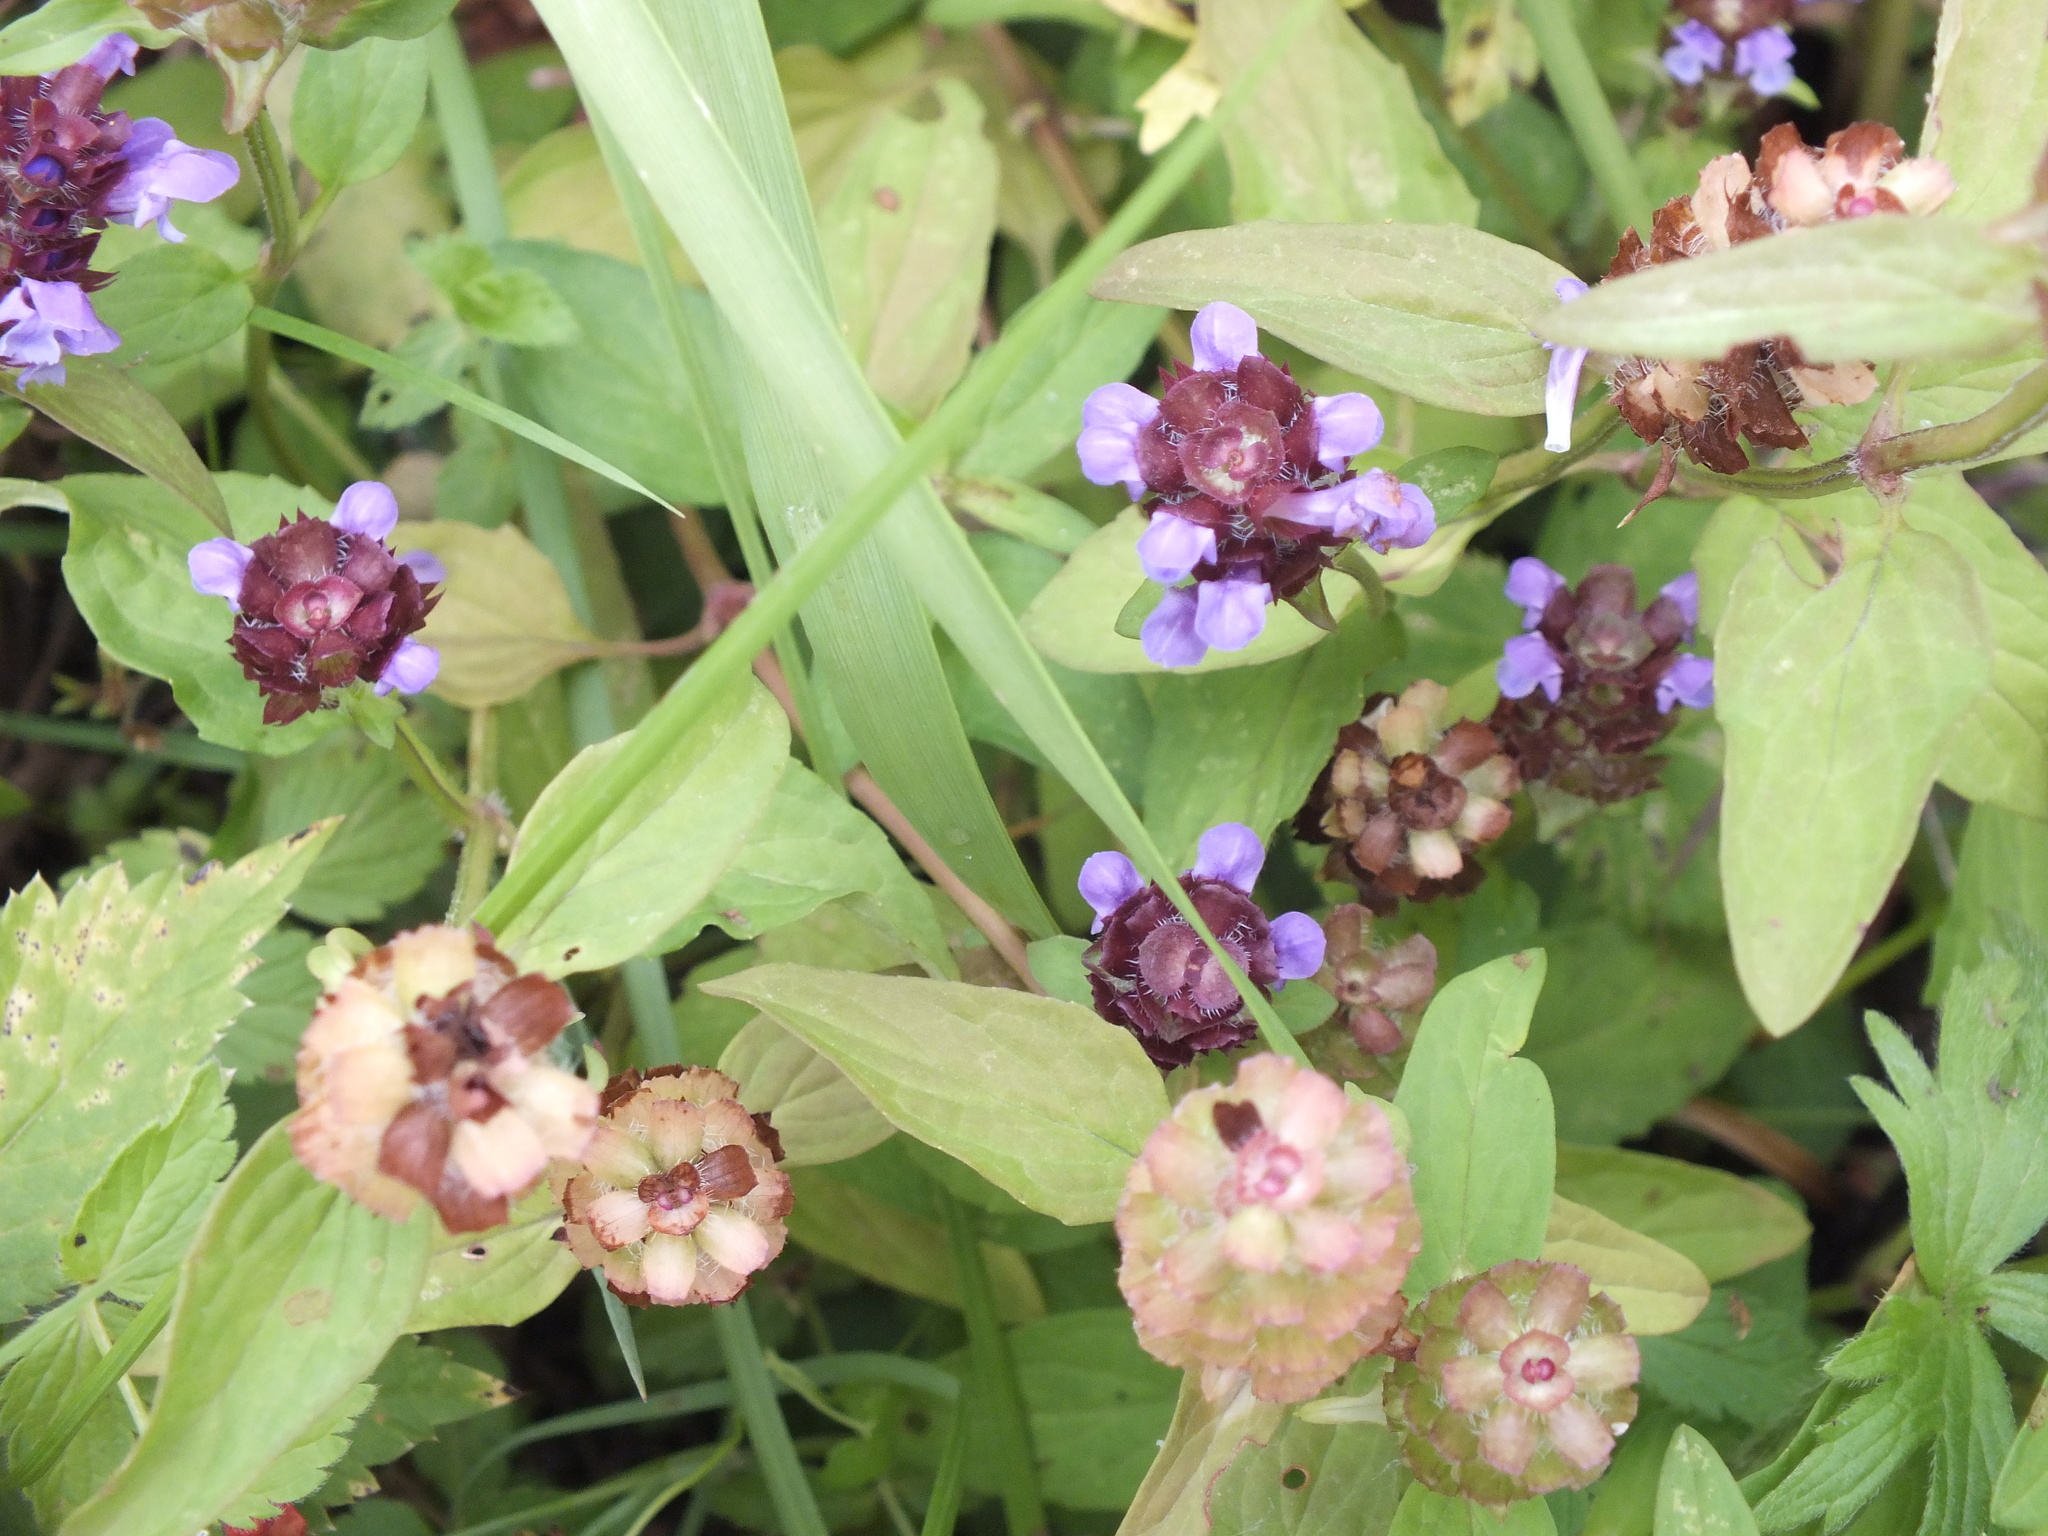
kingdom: Plantae
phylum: Tracheophyta
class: Magnoliopsida
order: Lamiales
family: Lamiaceae
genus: Prunella
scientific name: Prunella vulgaris
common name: Heal-all
